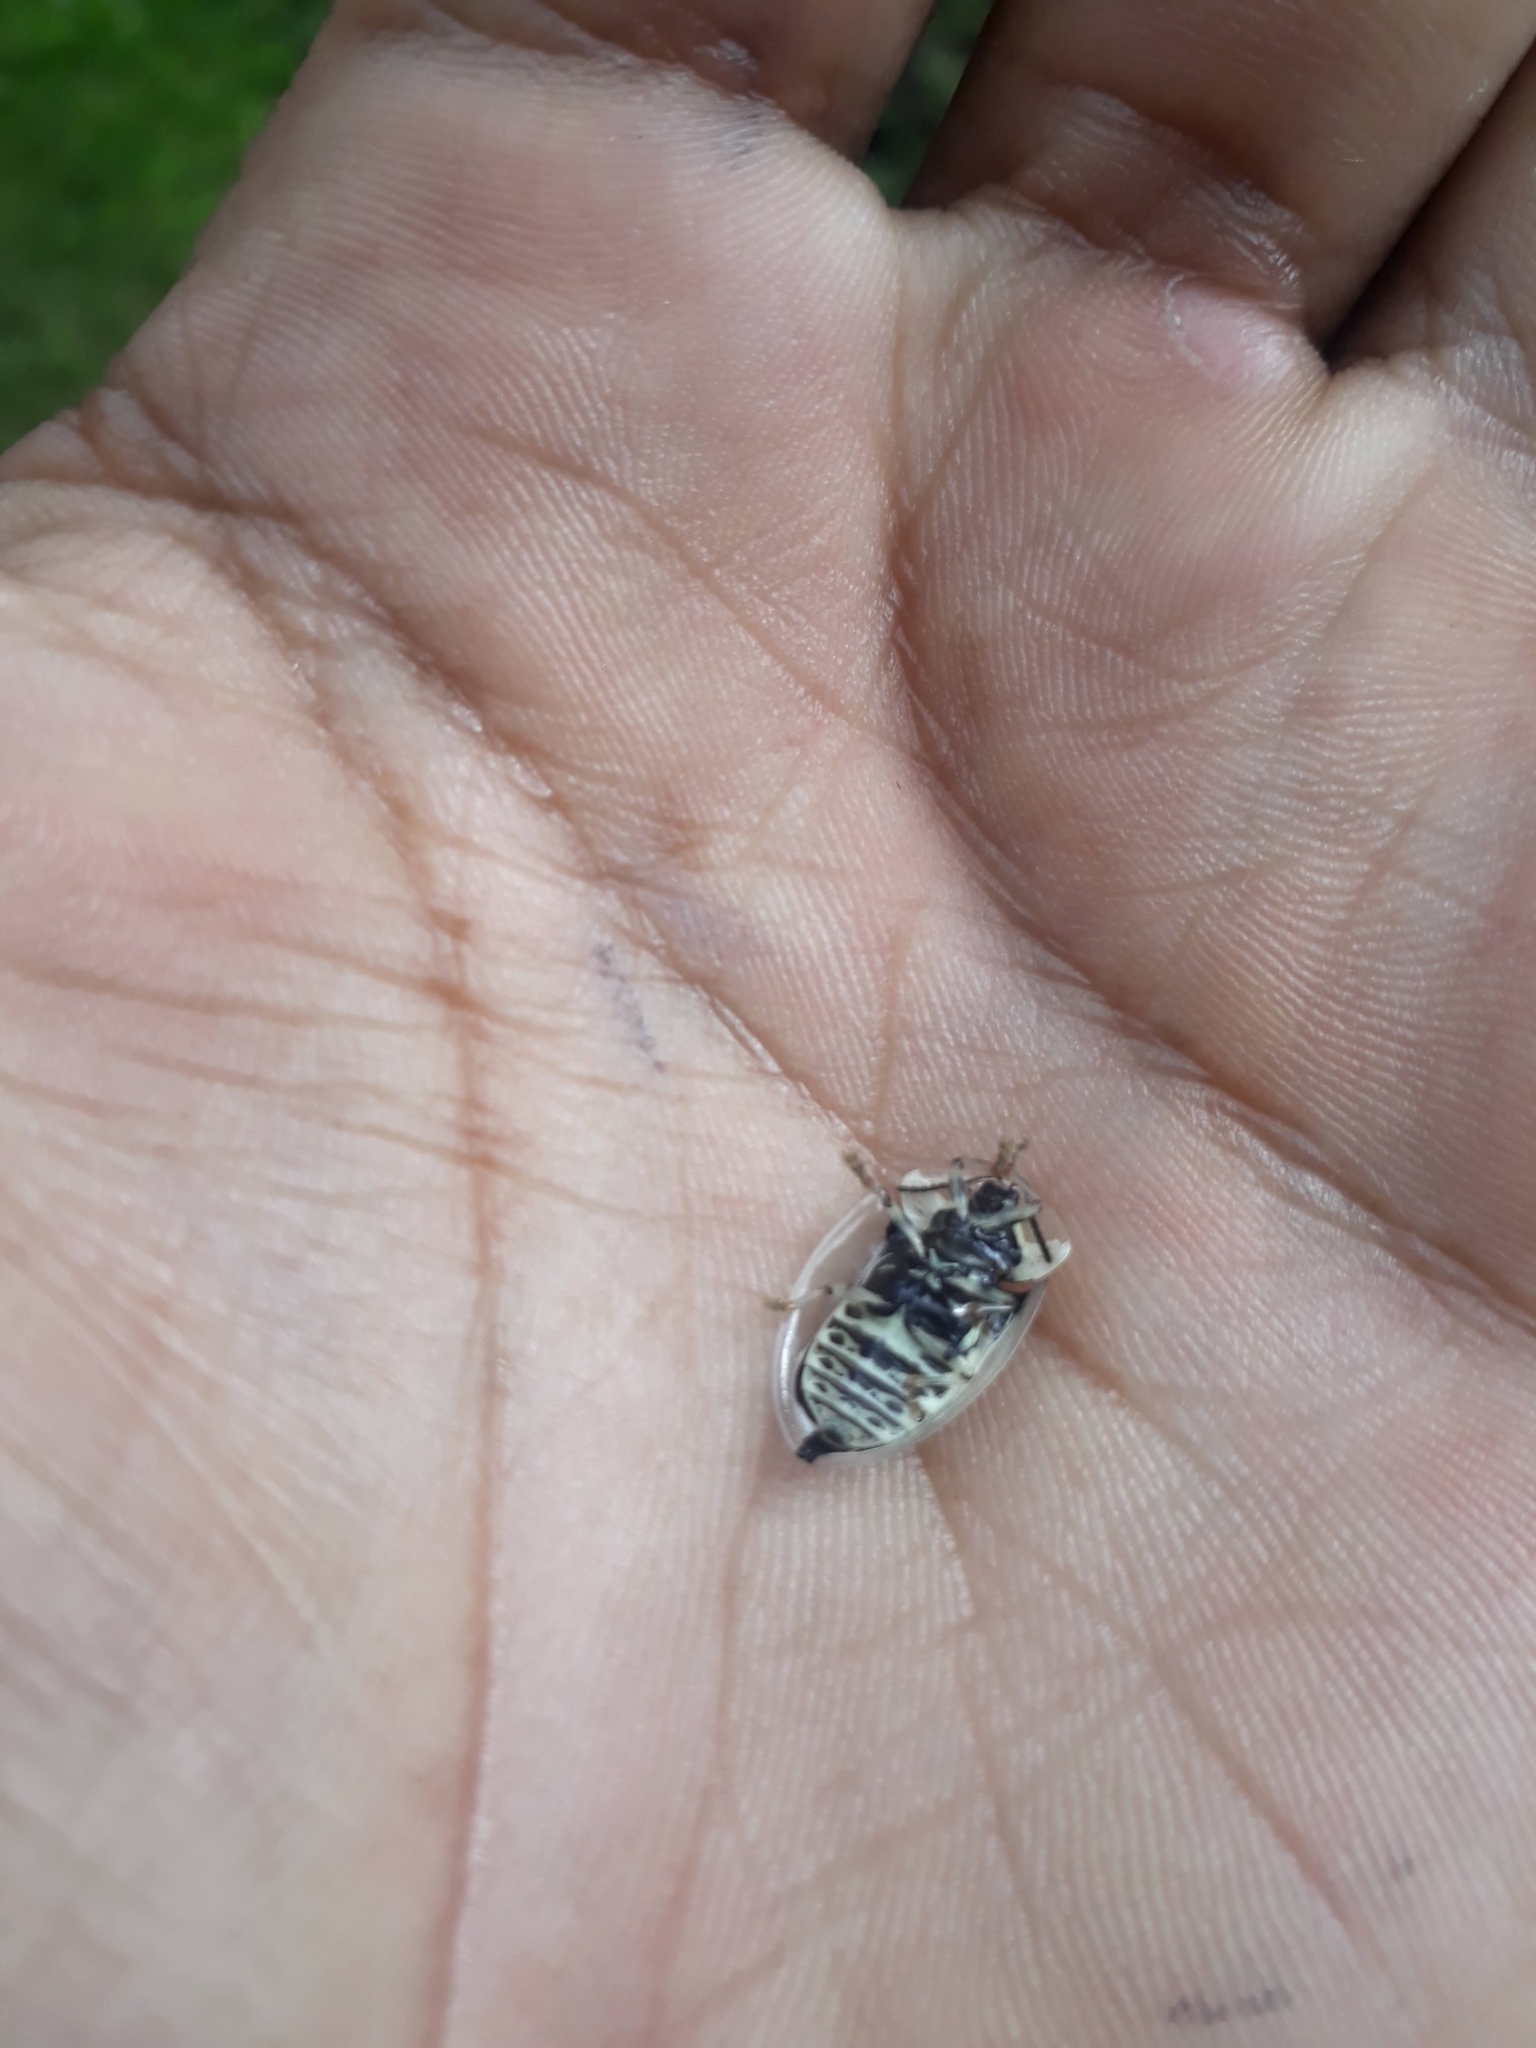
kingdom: Animalia
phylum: Arthropoda
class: Insecta
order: Coleoptera
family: Chrysomelidae
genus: Physonota
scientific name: Physonota vitticollis
